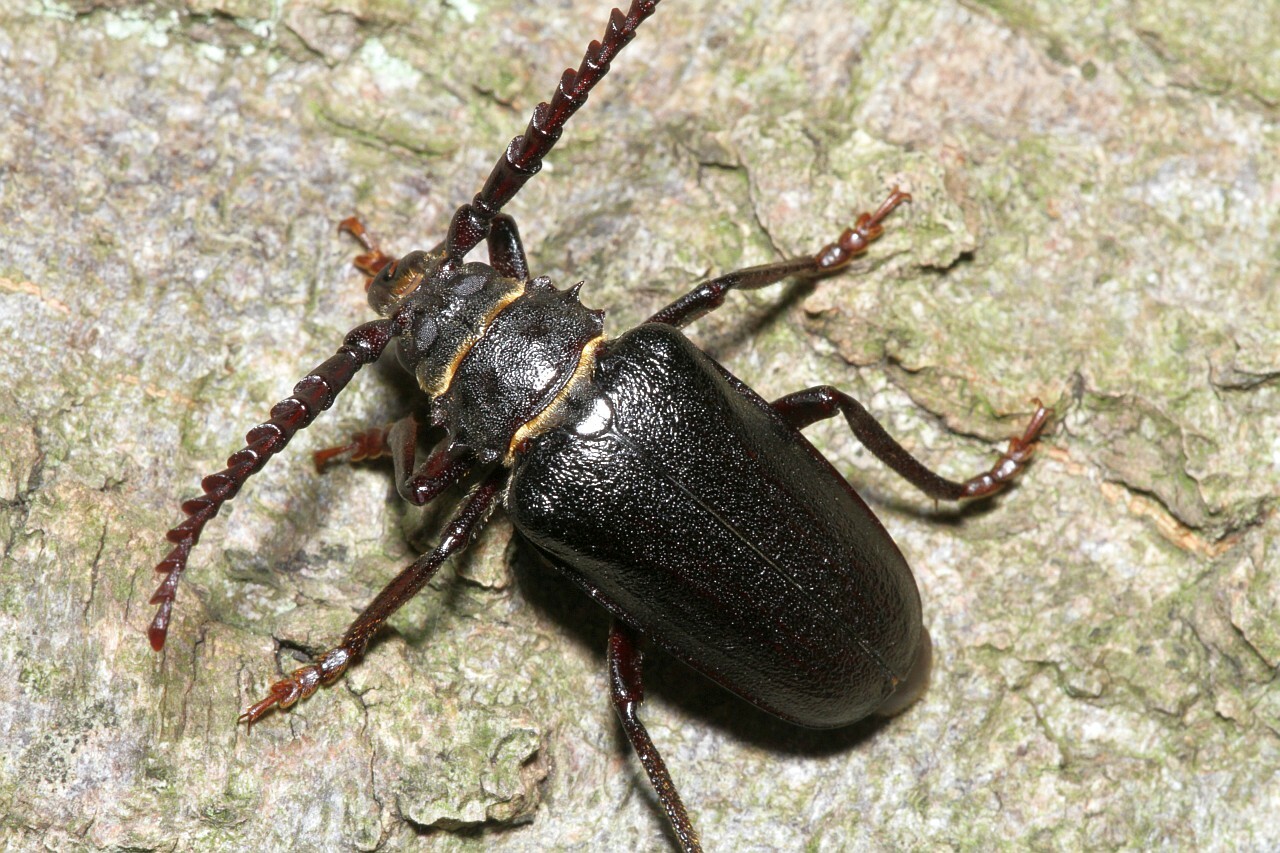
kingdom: Animalia
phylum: Arthropoda
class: Insecta
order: Coleoptera
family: Cerambycidae
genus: Prionus
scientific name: Prionus coriarius
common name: Tanner beetle
